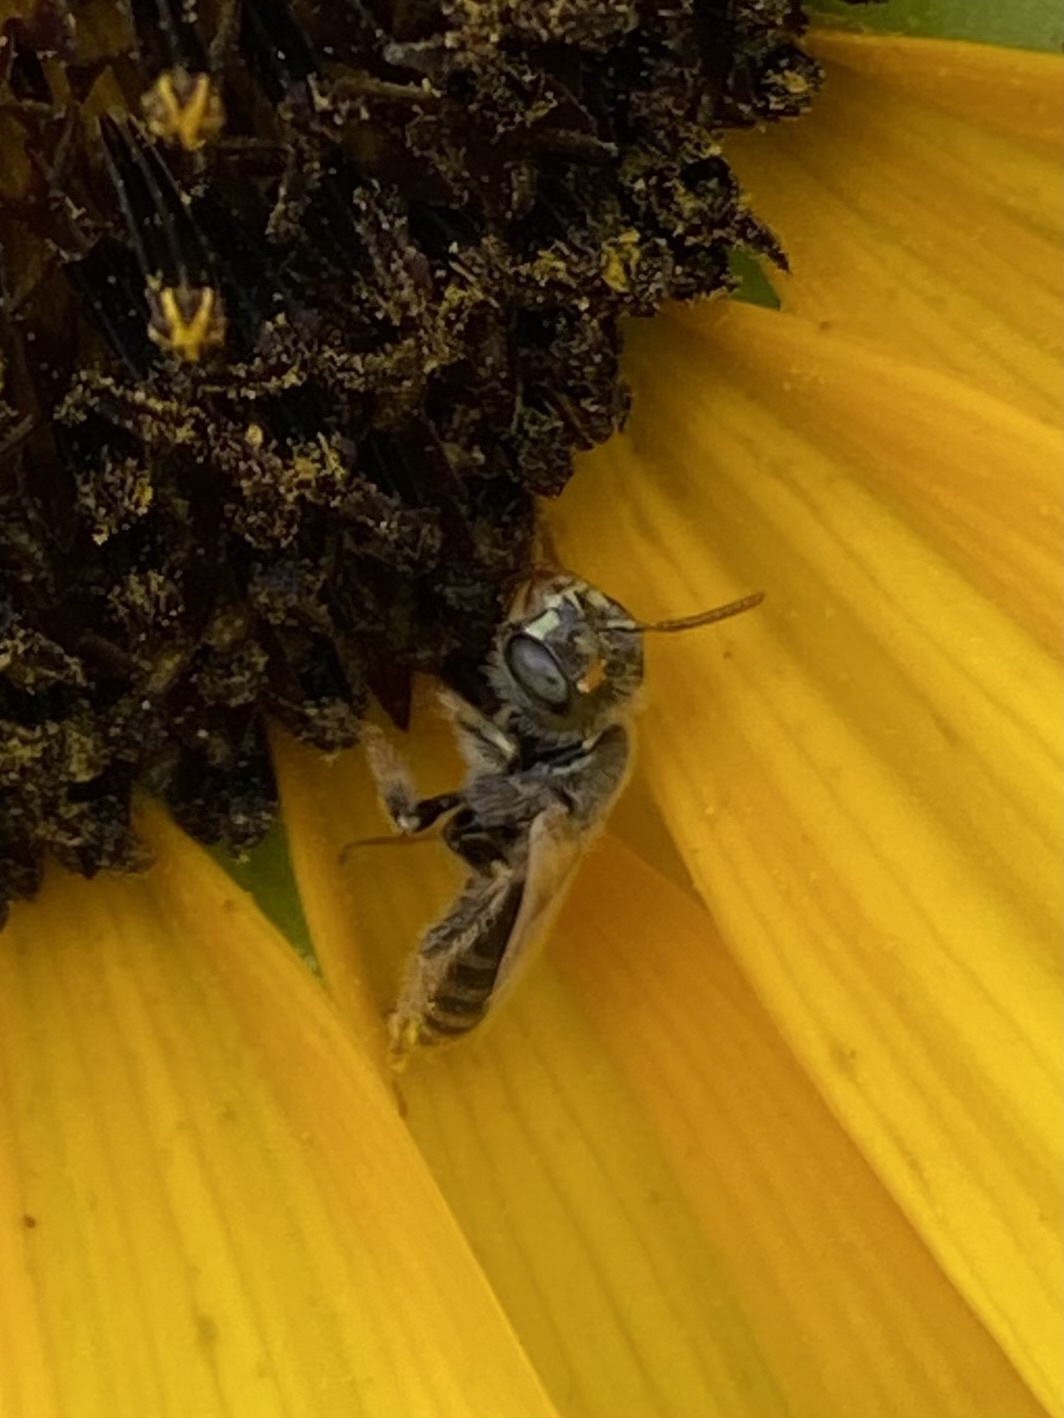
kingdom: Animalia
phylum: Arthropoda
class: Insecta
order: Hymenoptera
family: Andrenidae
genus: Perdita
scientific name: Perdita albipennis
